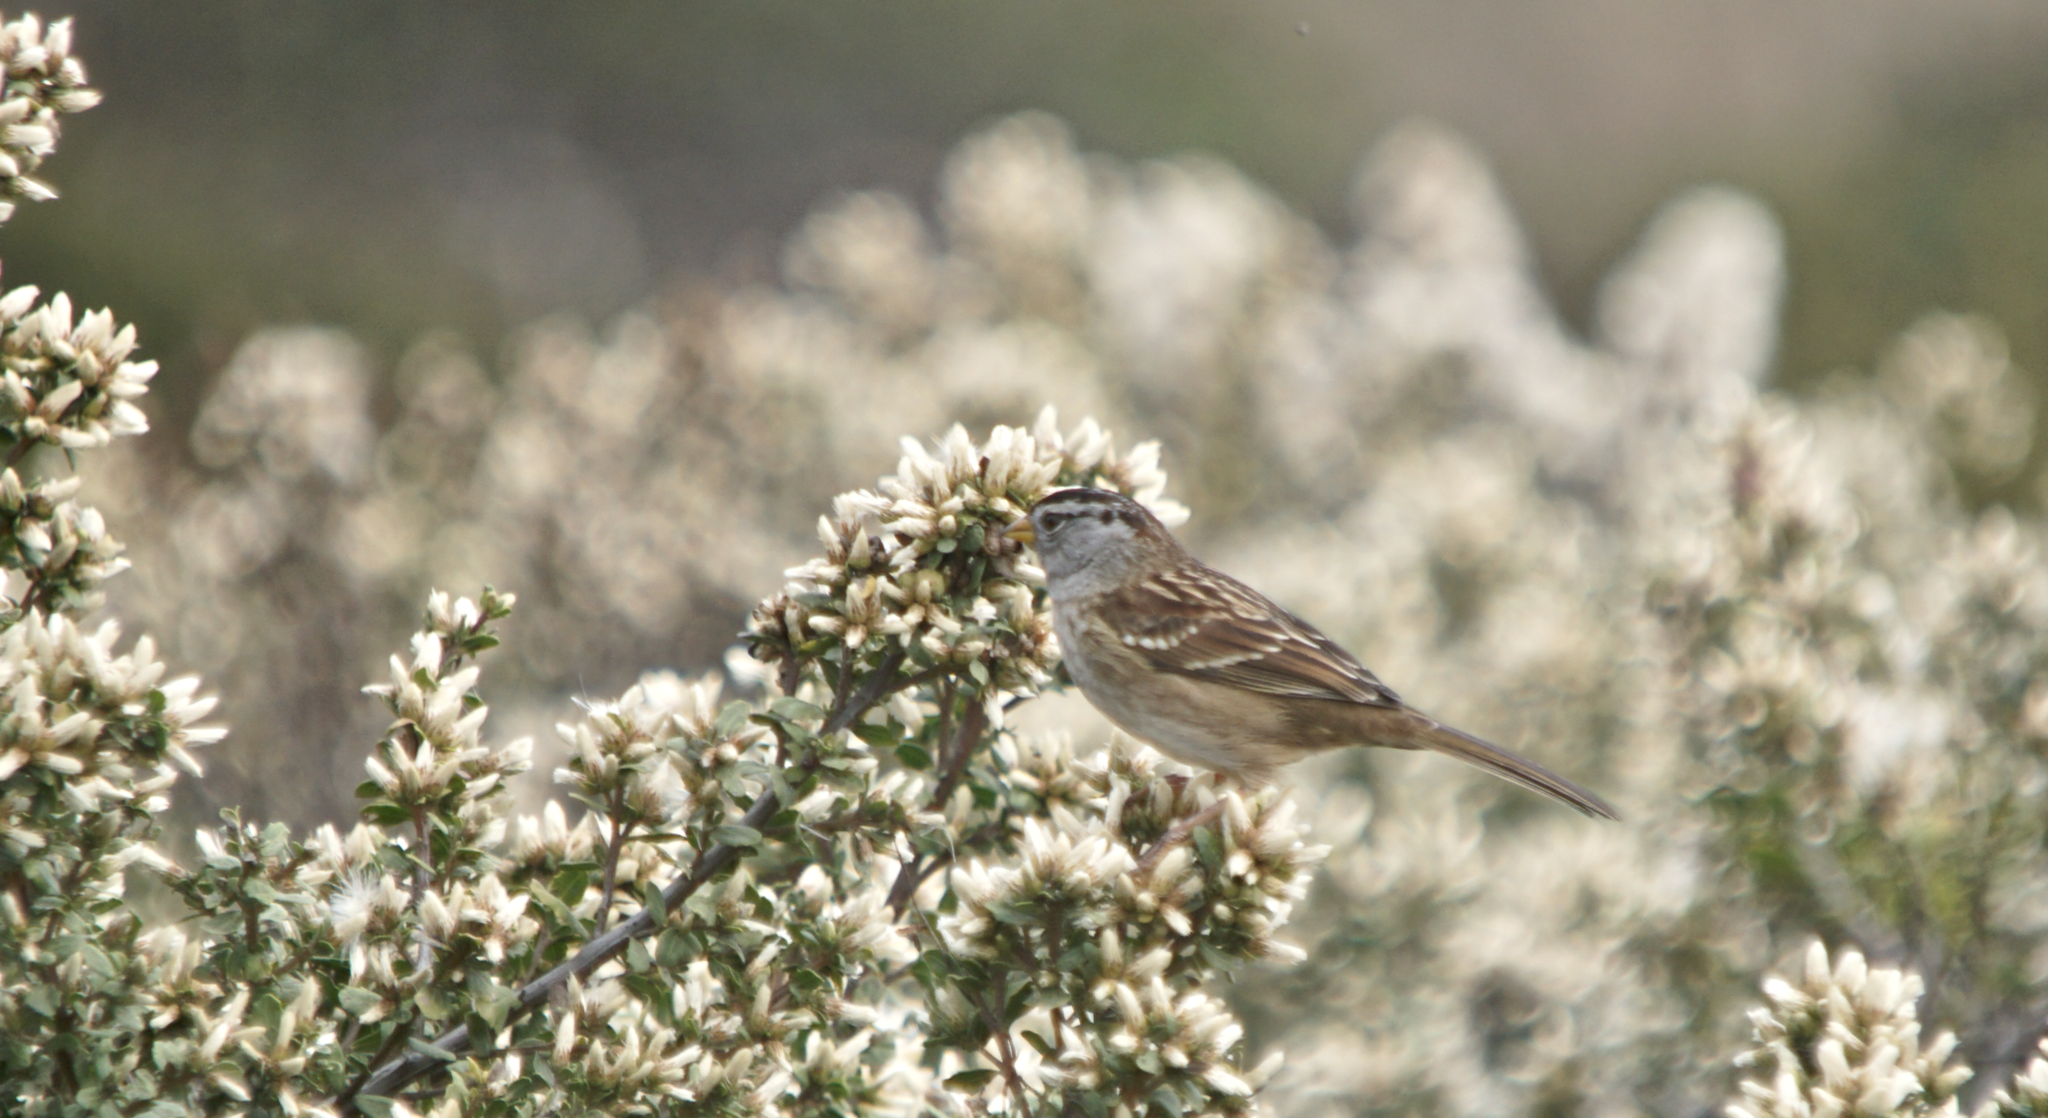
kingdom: Animalia
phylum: Chordata
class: Aves
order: Passeriformes
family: Passerellidae
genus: Zonotrichia
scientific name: Zonotrichia leucophrys
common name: White-crowned sparrow
